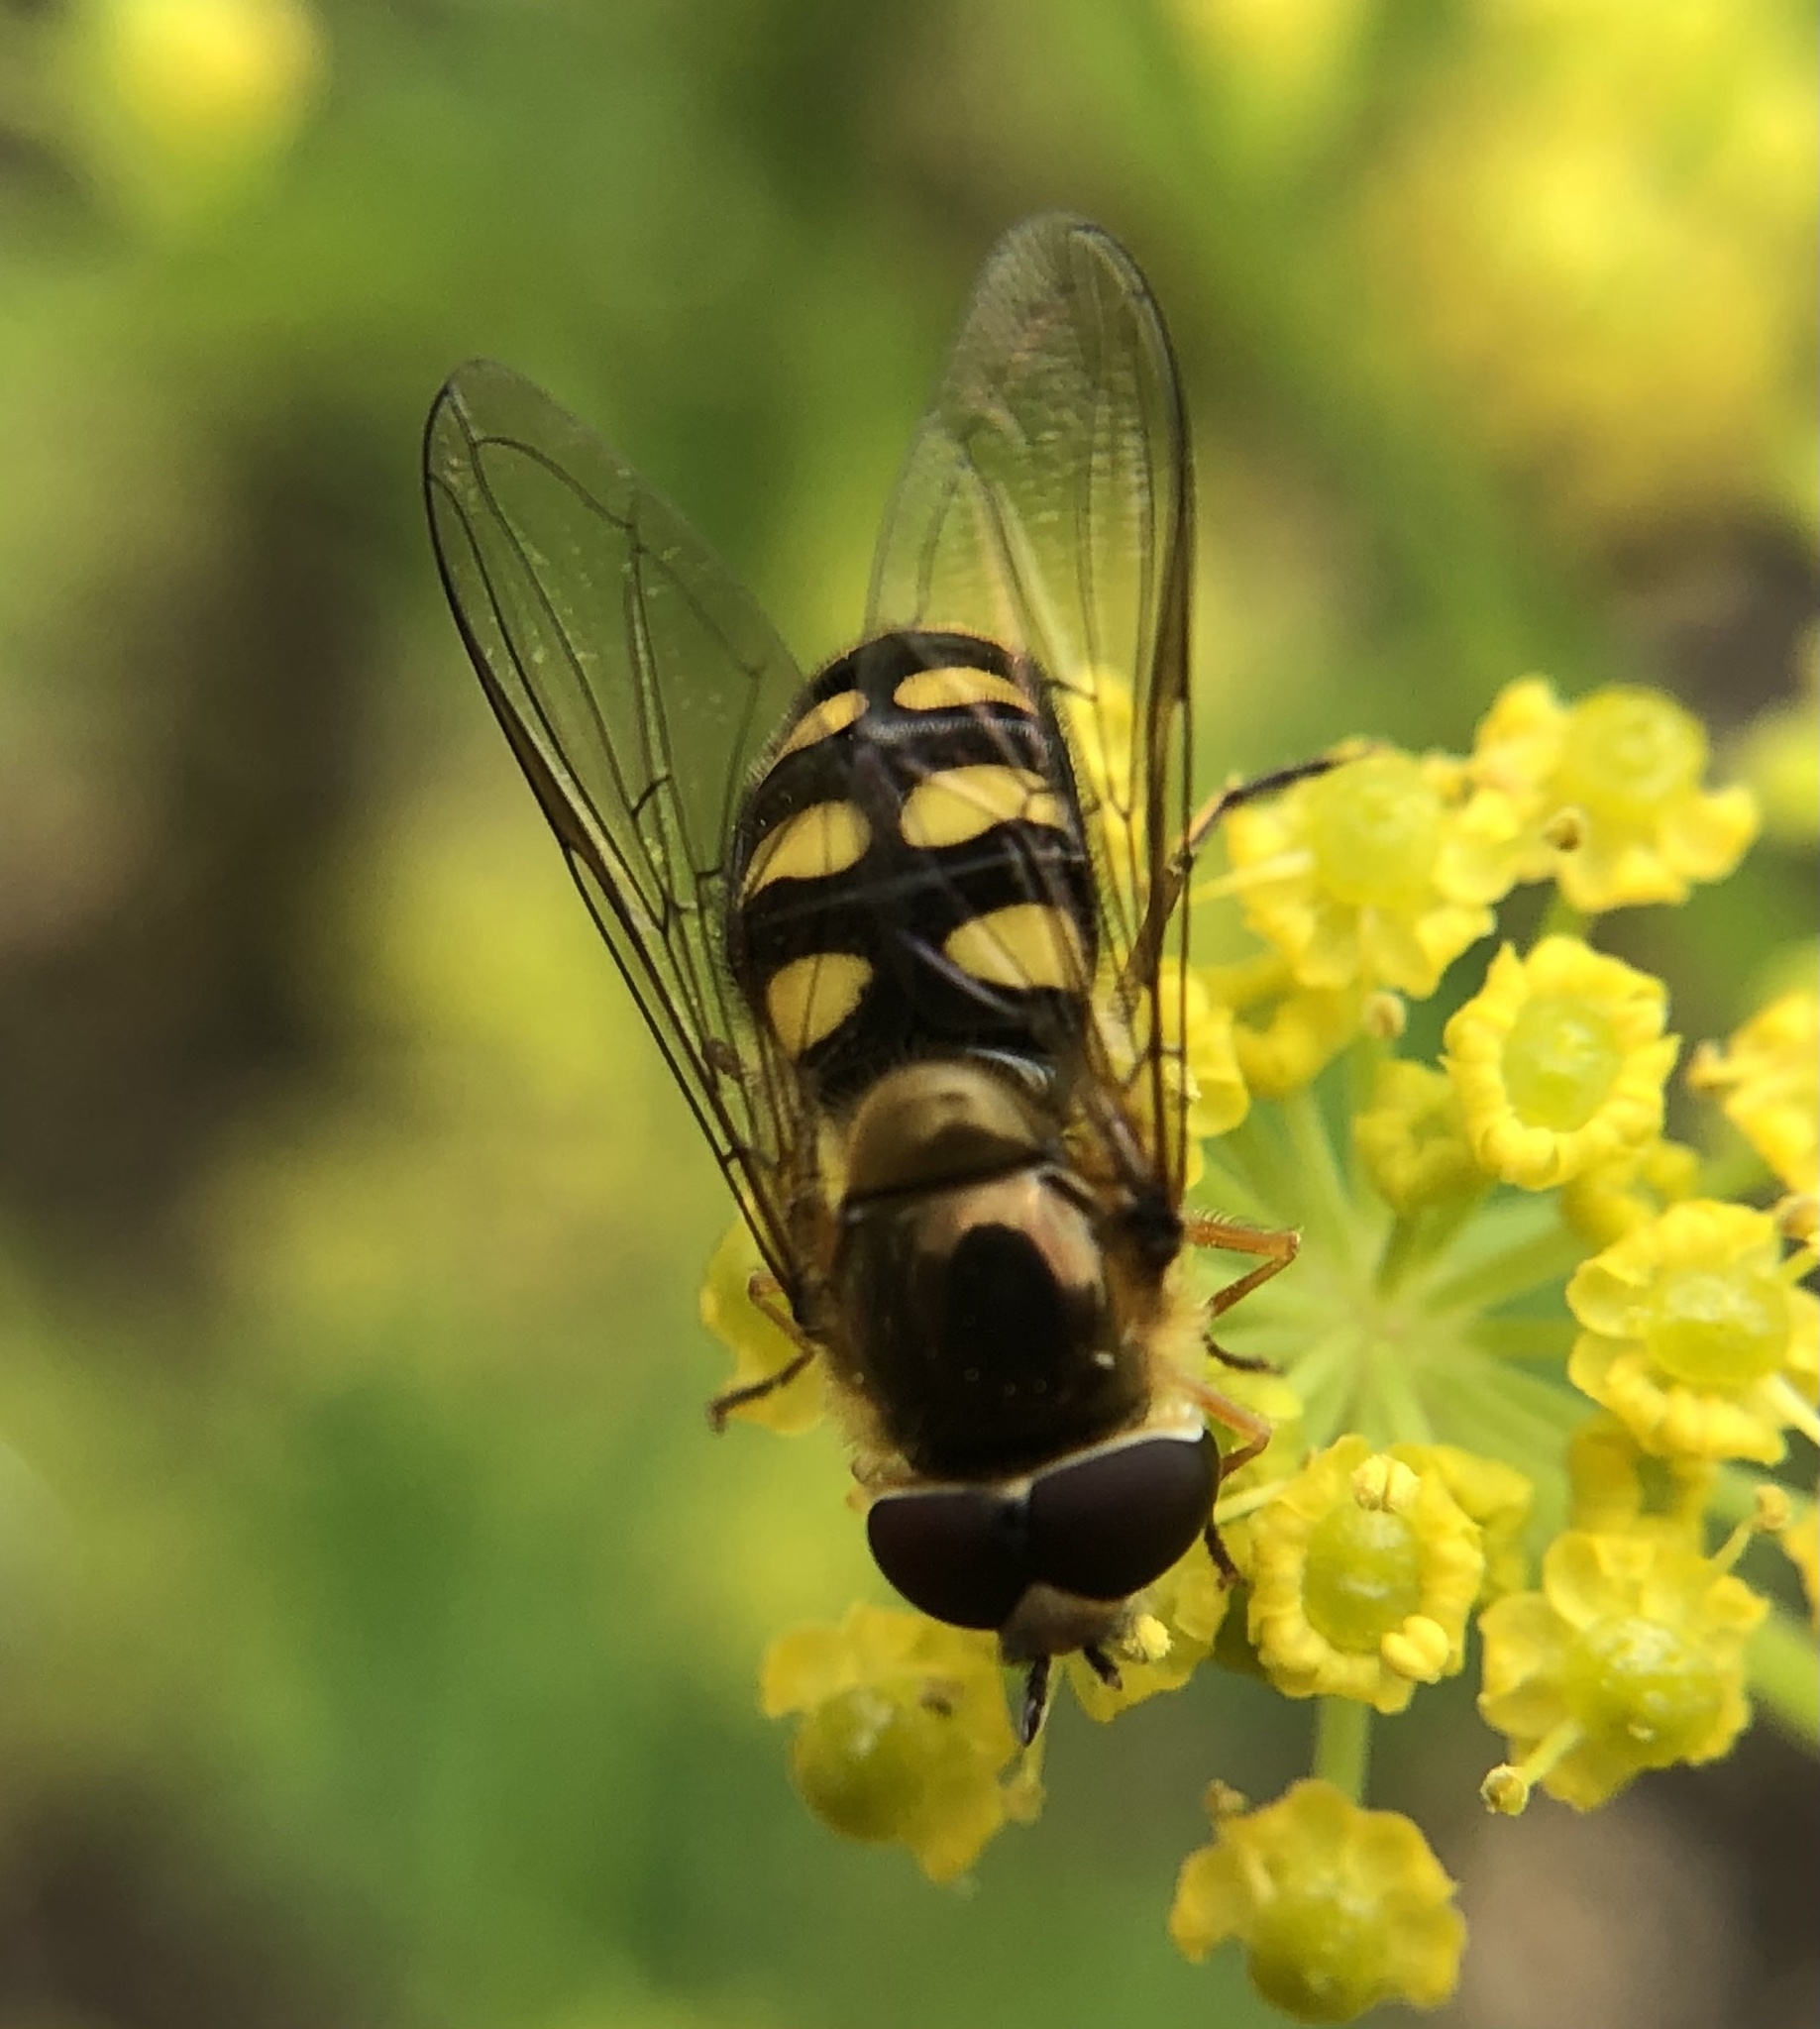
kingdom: Animalia
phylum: Arthropoda
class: Insecta
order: Diptera
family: Syrphidae
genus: Eupeodes
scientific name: Eupeodes
